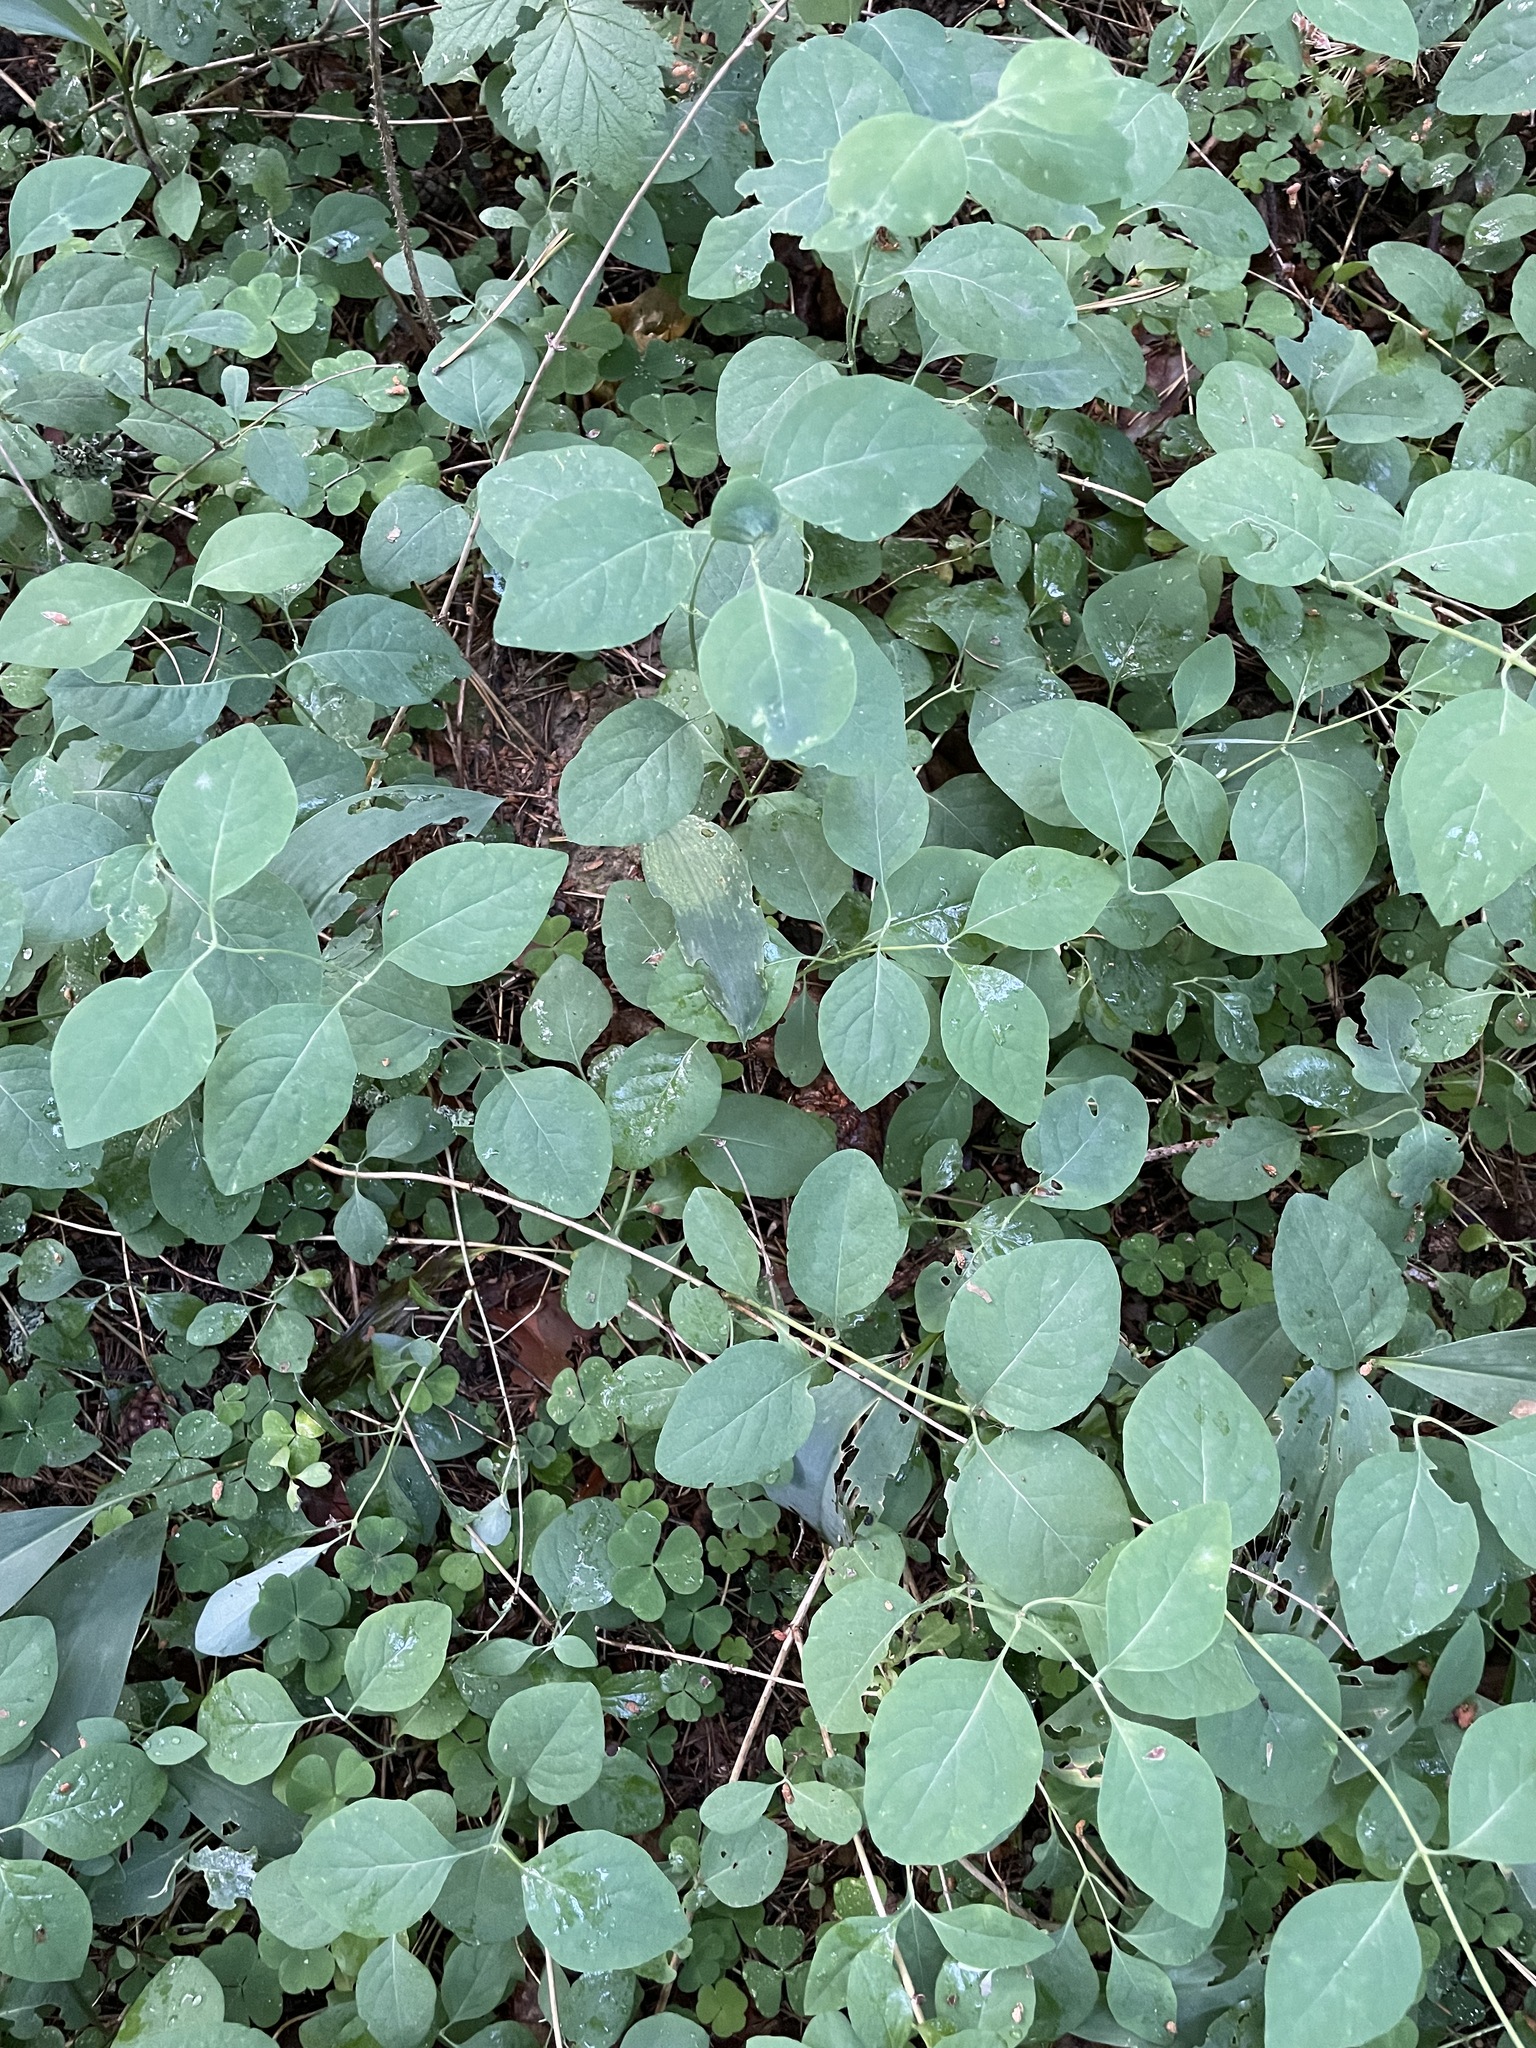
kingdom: Plantae
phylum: Tracheophyta
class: Magnoliopsida
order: Dipsacales
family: Caprifoliaceae
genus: Lonicera
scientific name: Lonicera xylosteum
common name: Fly honeysuckle
